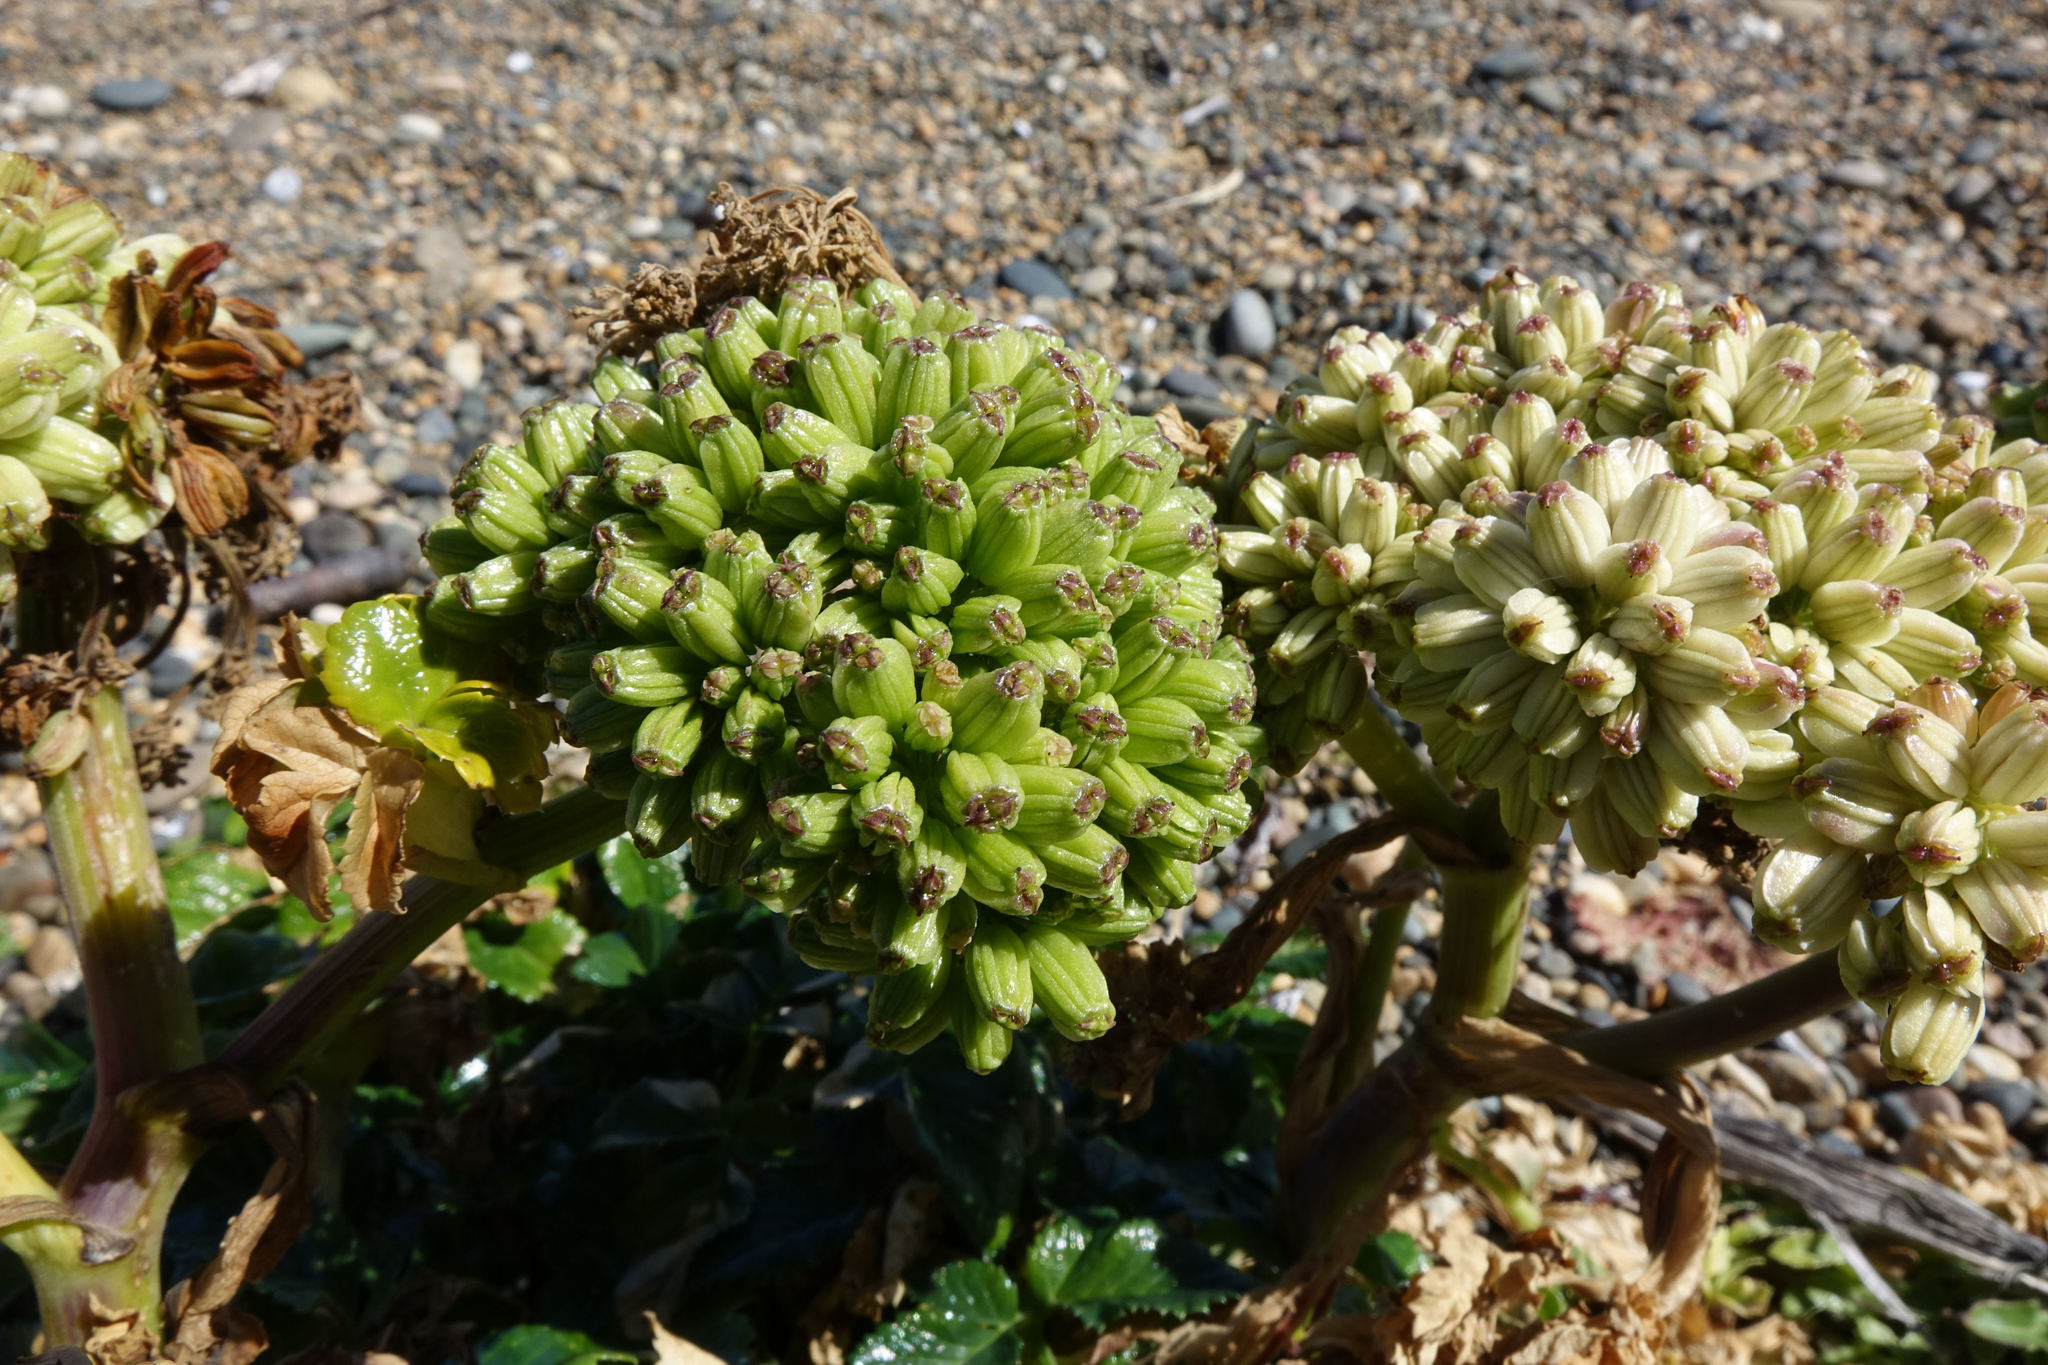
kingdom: Plantae
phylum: Tracheophyta
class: Magnoliopsida
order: Apiales
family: Apiaceae
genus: Angelica
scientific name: Angelica pachycarpa
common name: Portuguese angelica
